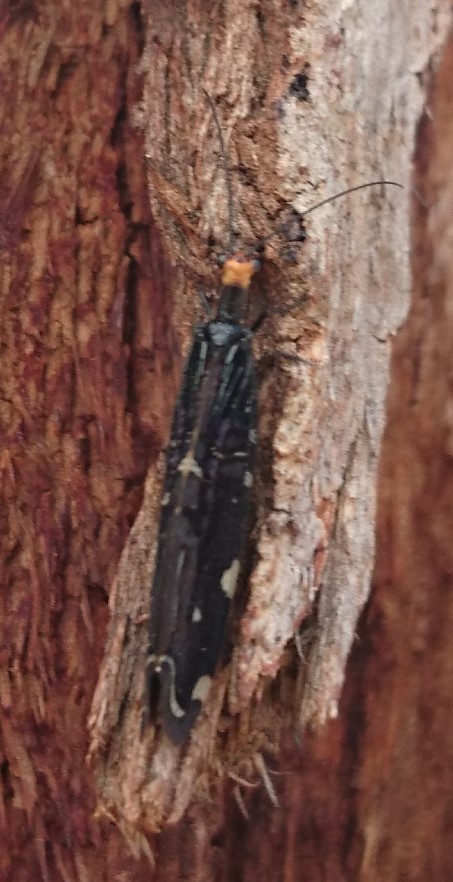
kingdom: Animalia
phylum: Arthropoda
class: Insecta
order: Neuroptera
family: Osmylidae
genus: Porismus
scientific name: Porismus strigatus
